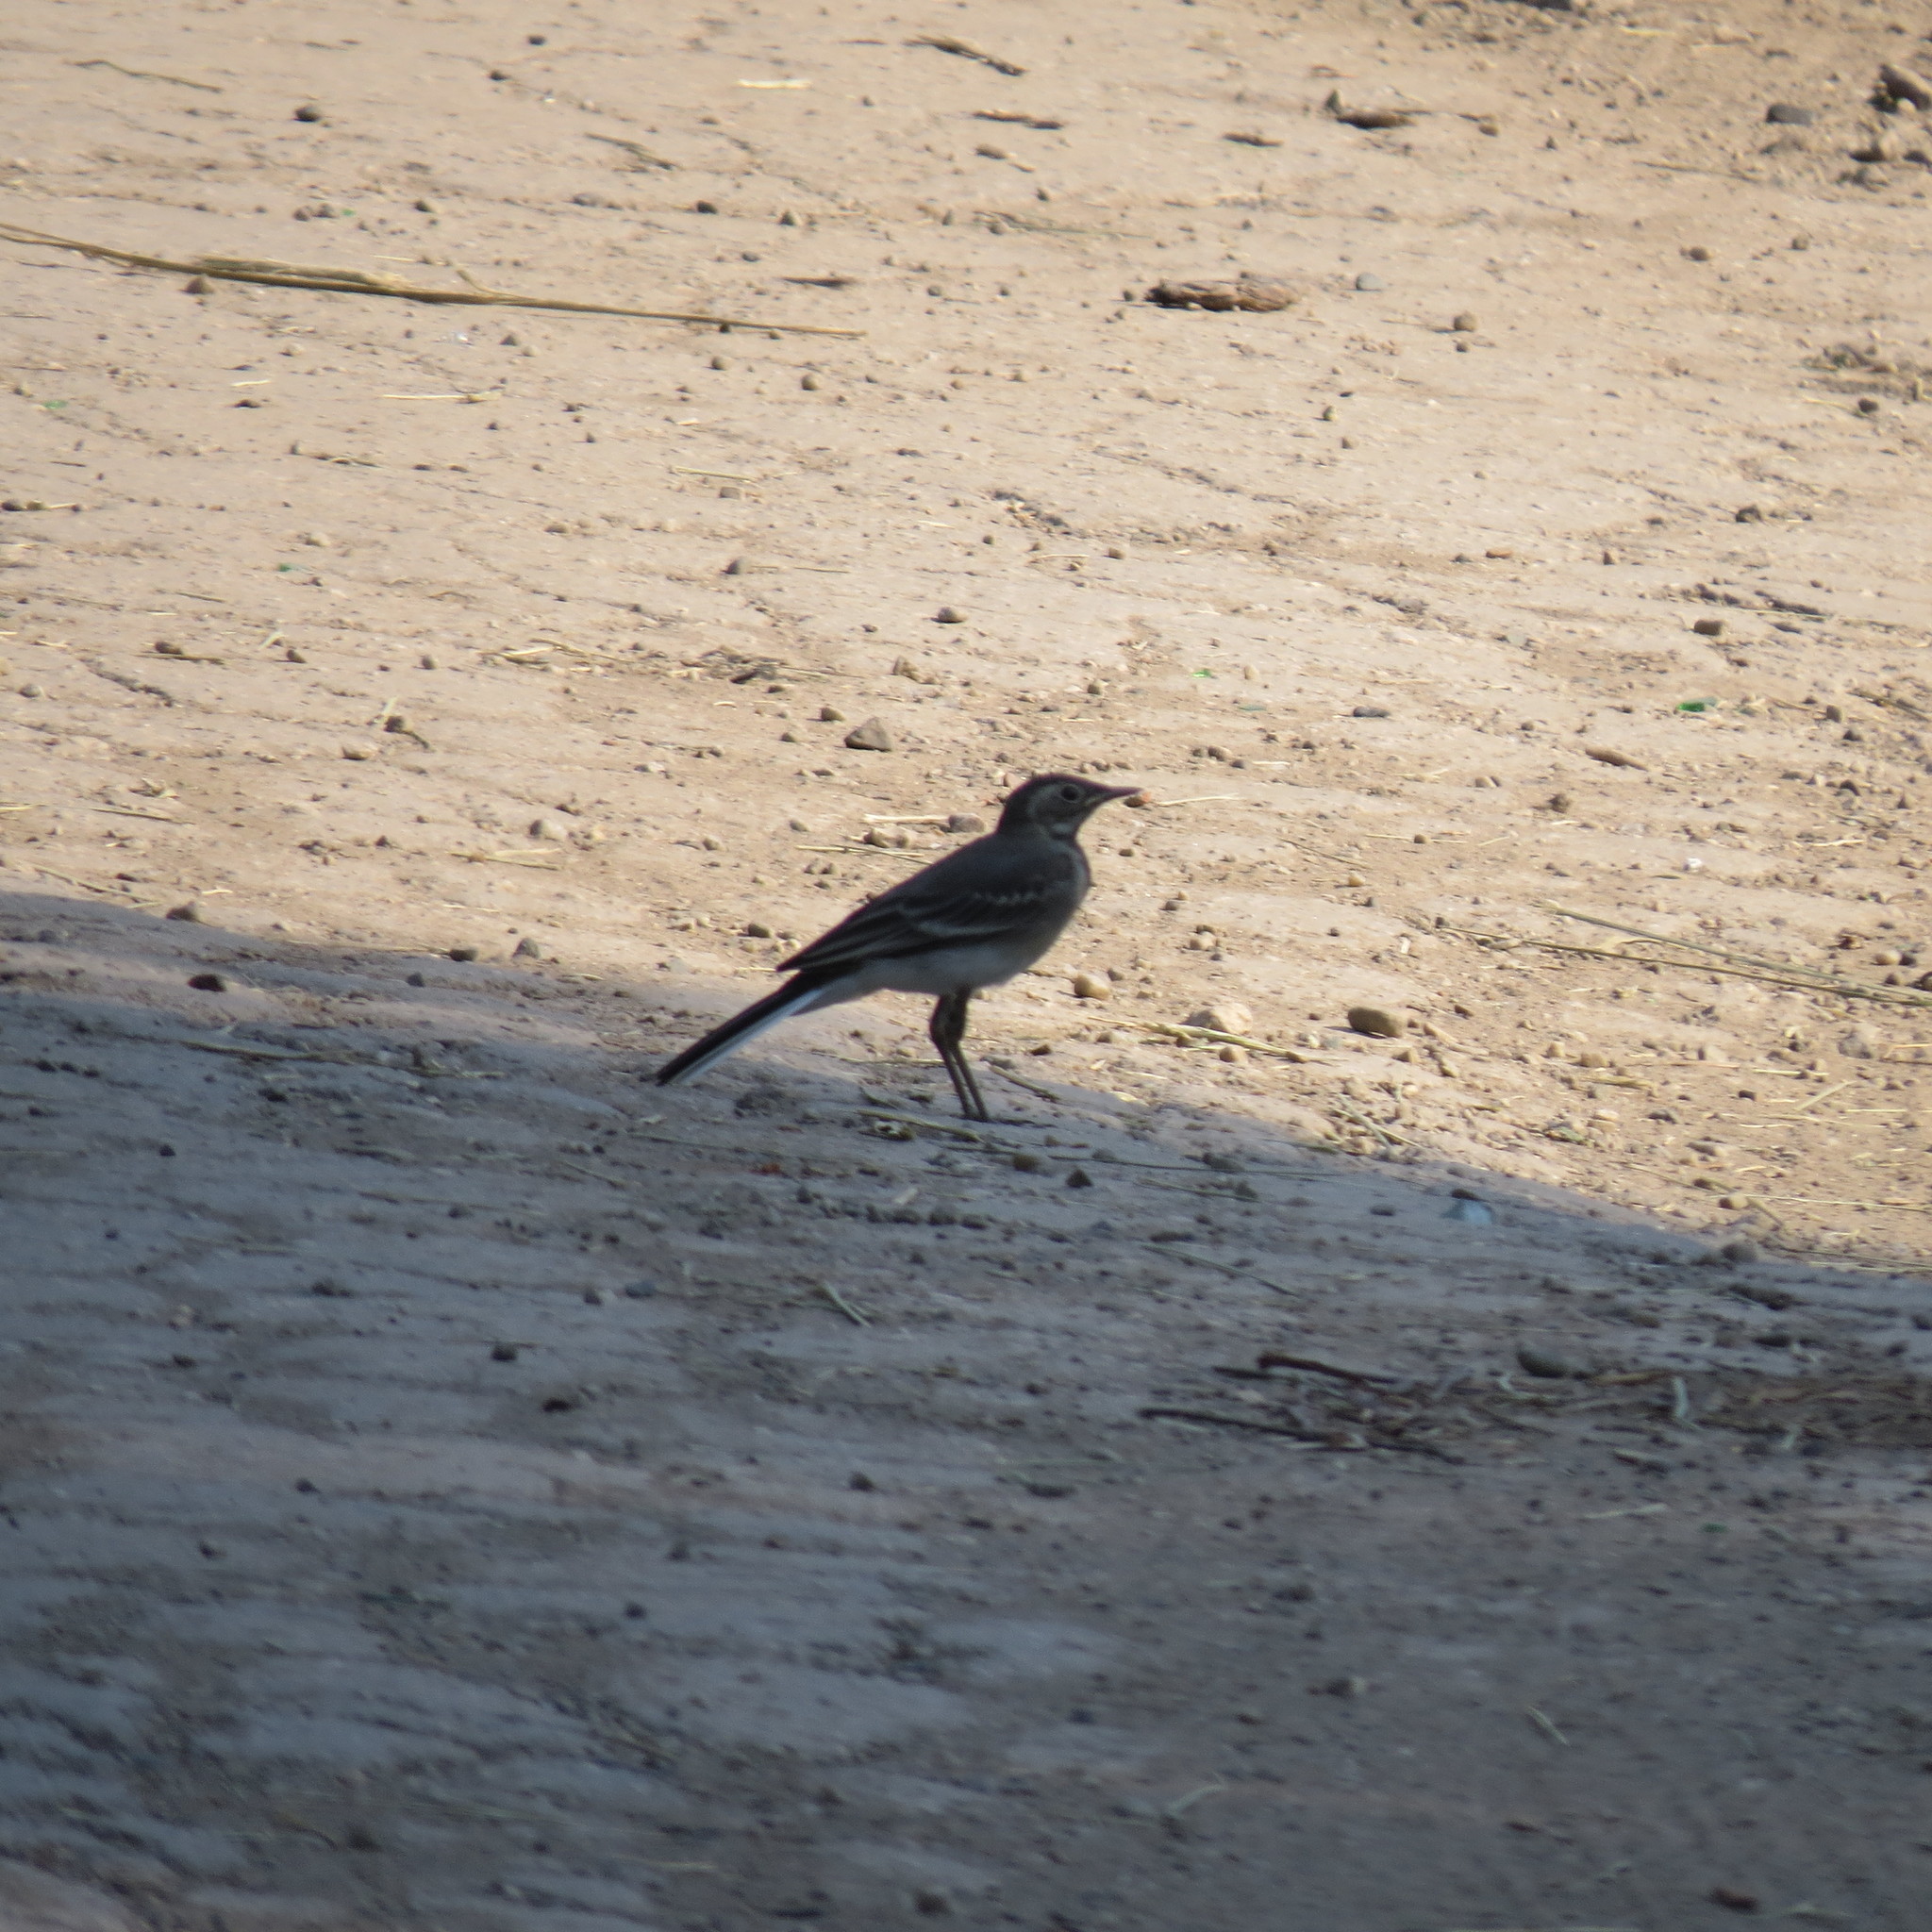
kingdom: Animalia
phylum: Chordata
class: Aves
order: Passeriformes
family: Motacillidae
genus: Motacilla
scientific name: Motacilla alba
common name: White wagtail
